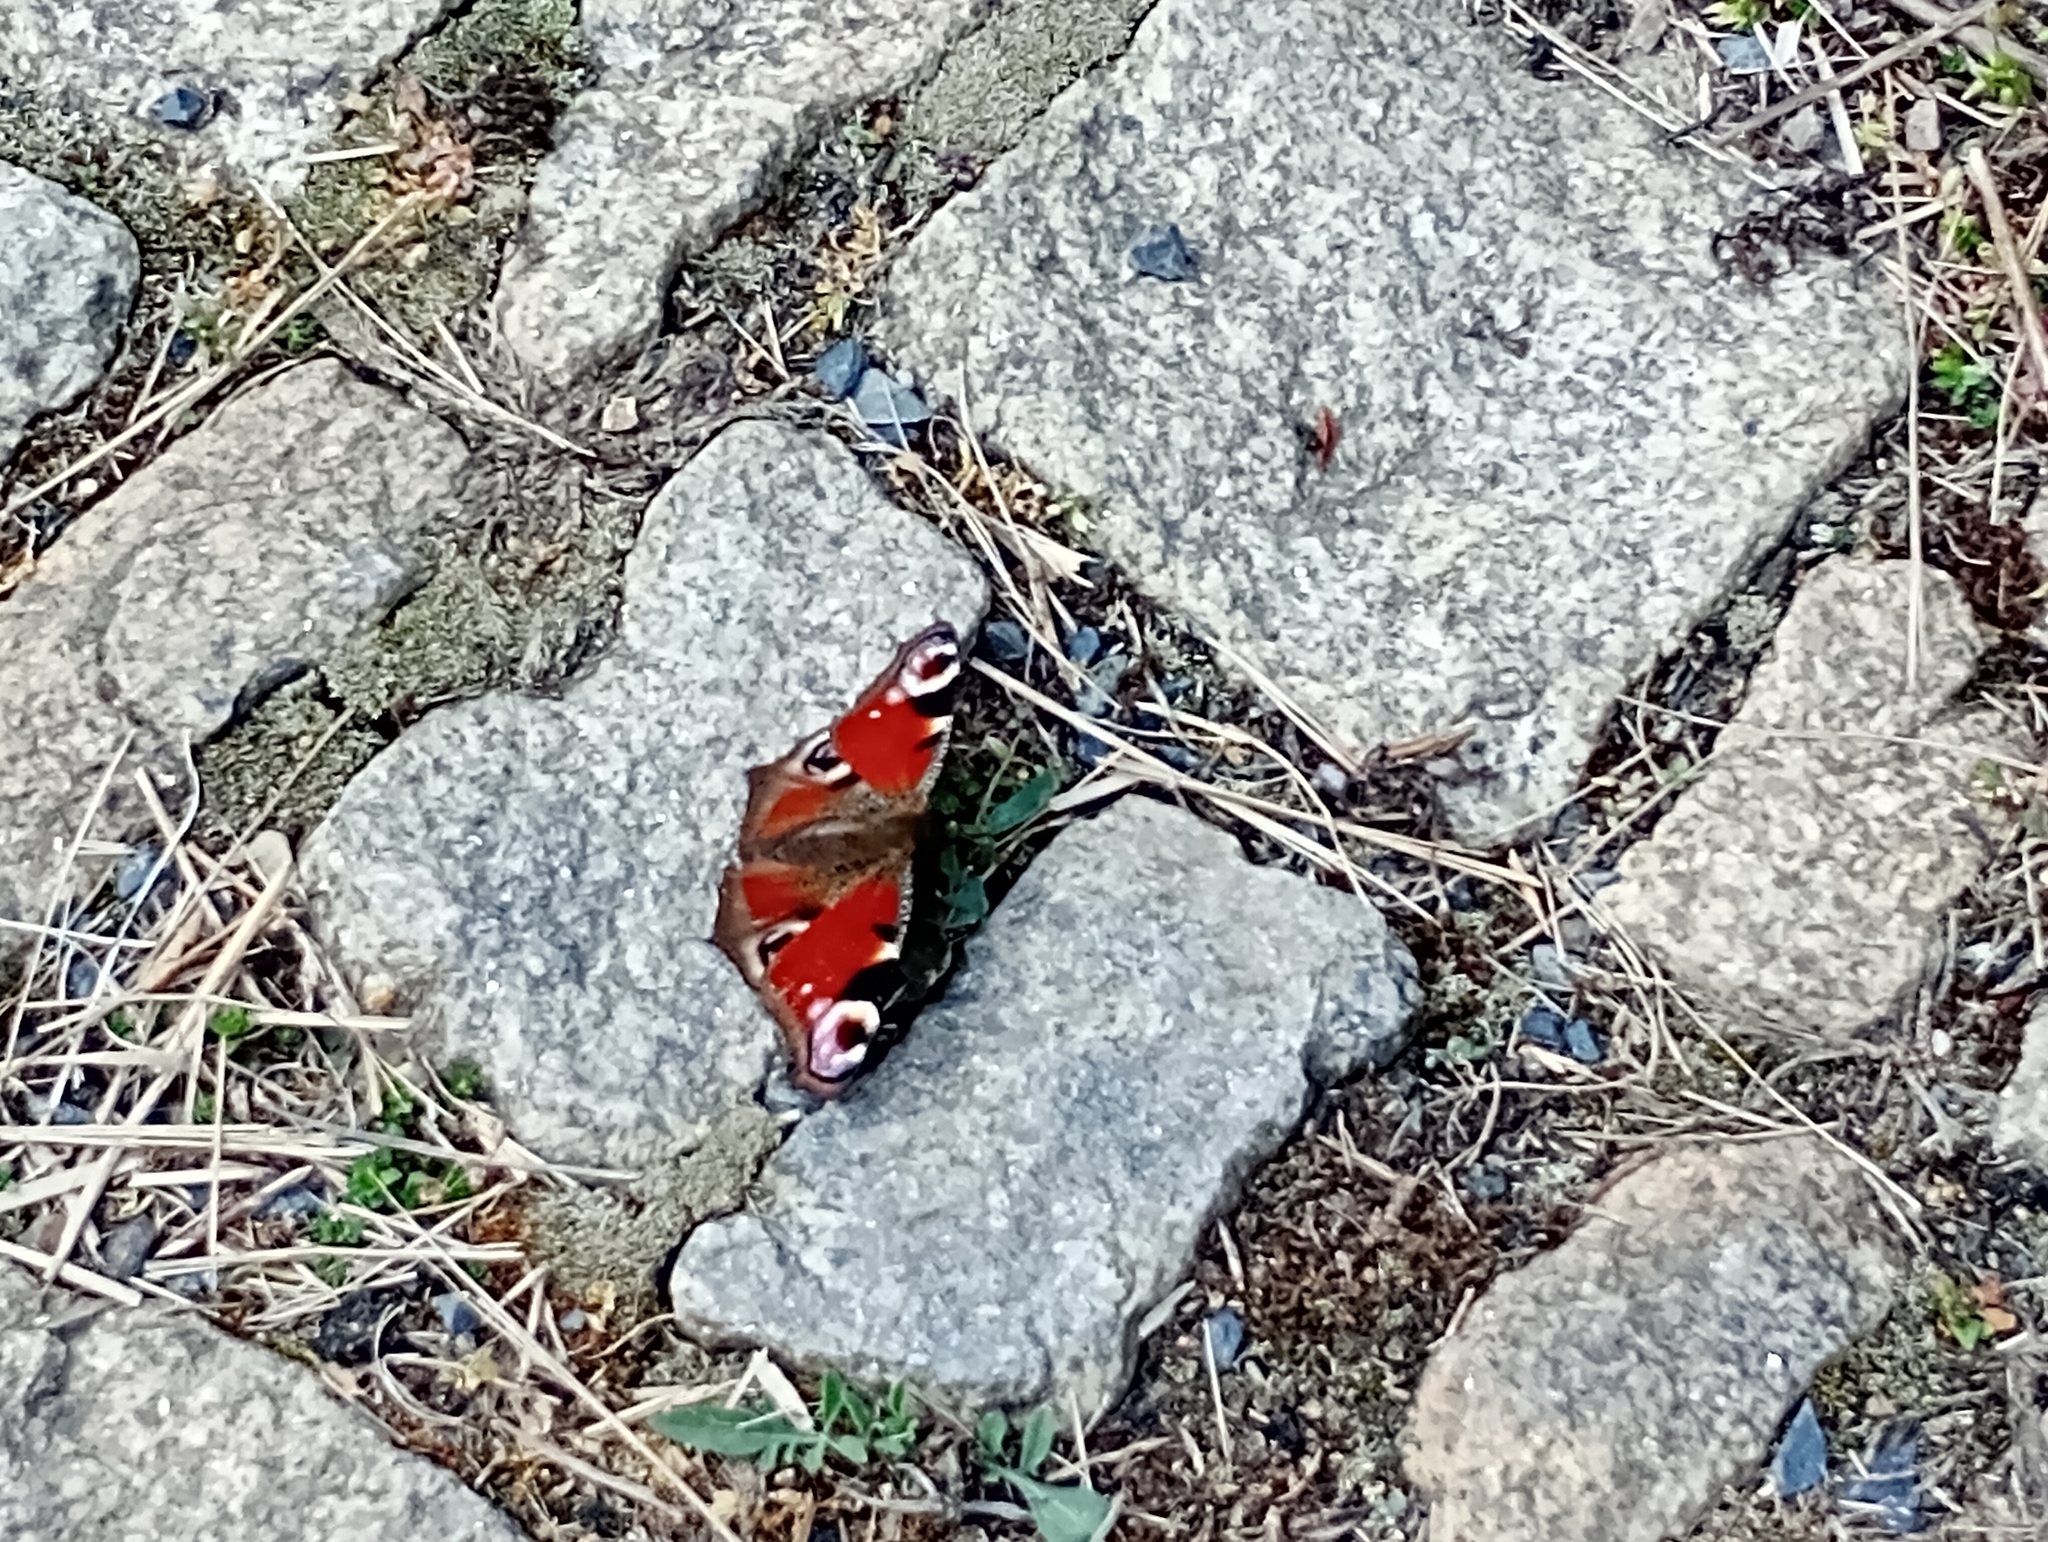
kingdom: Animalia
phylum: Arthropoda
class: Insecta
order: Lepidoptera
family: Nymphalidae
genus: Aglais
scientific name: Aglais io
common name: Peacock
